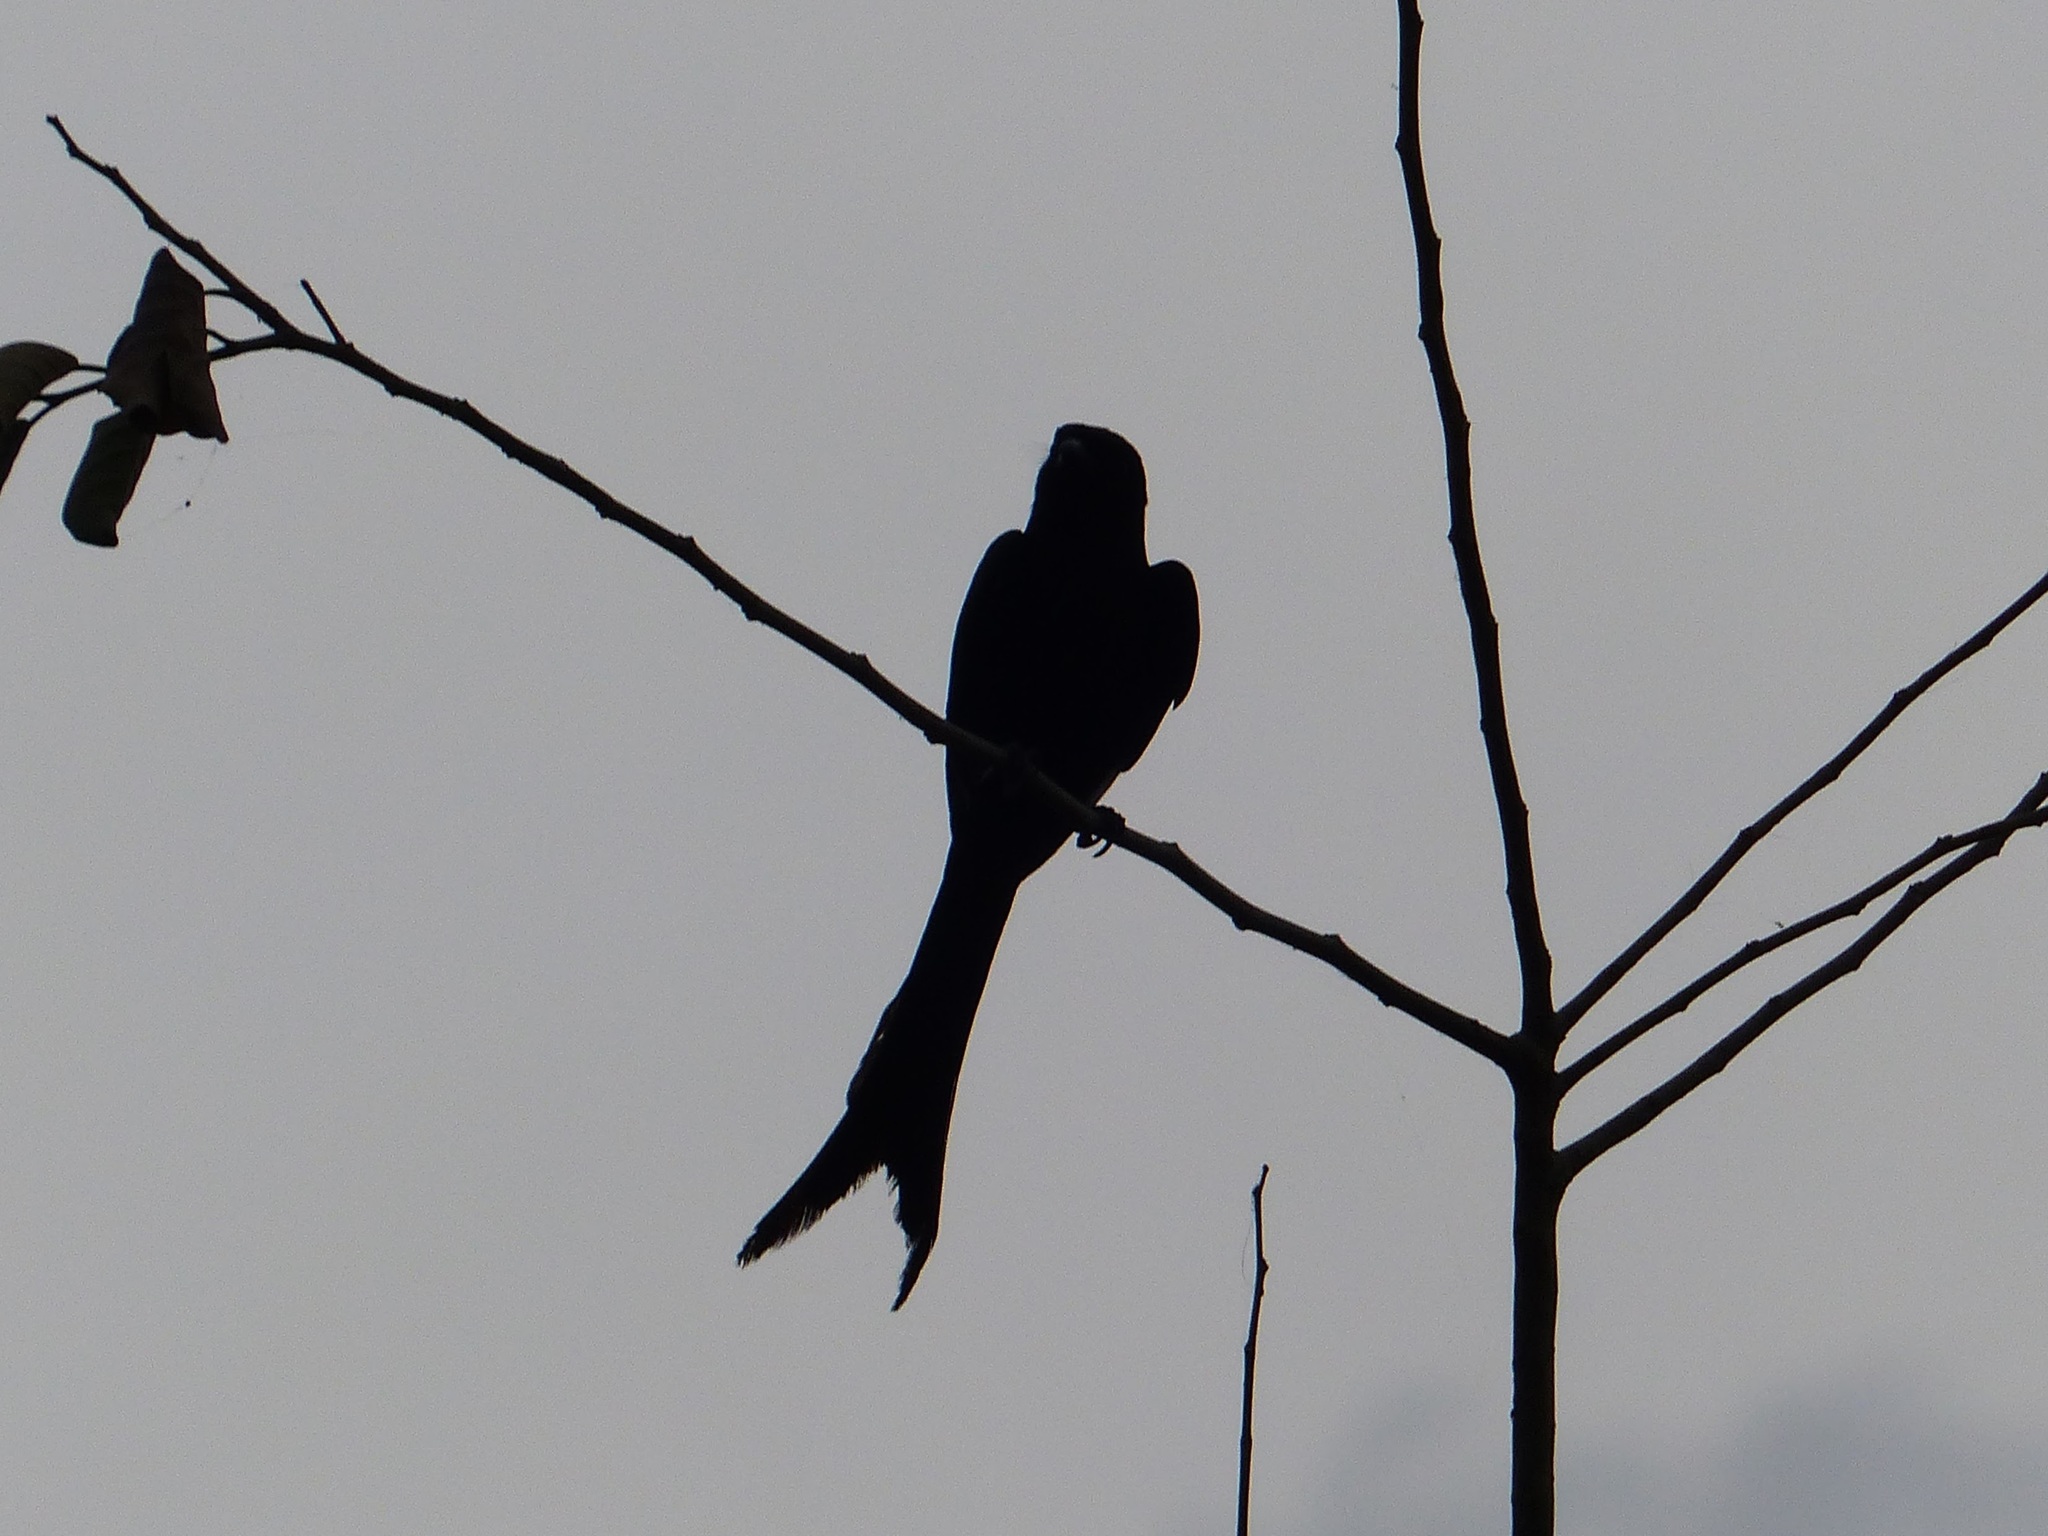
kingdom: Animalia
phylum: Chordata
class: Aves
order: Passeriformes
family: Dicruridae
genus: Dicrurus
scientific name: Dicrurus macrocercus
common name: Black drongo
